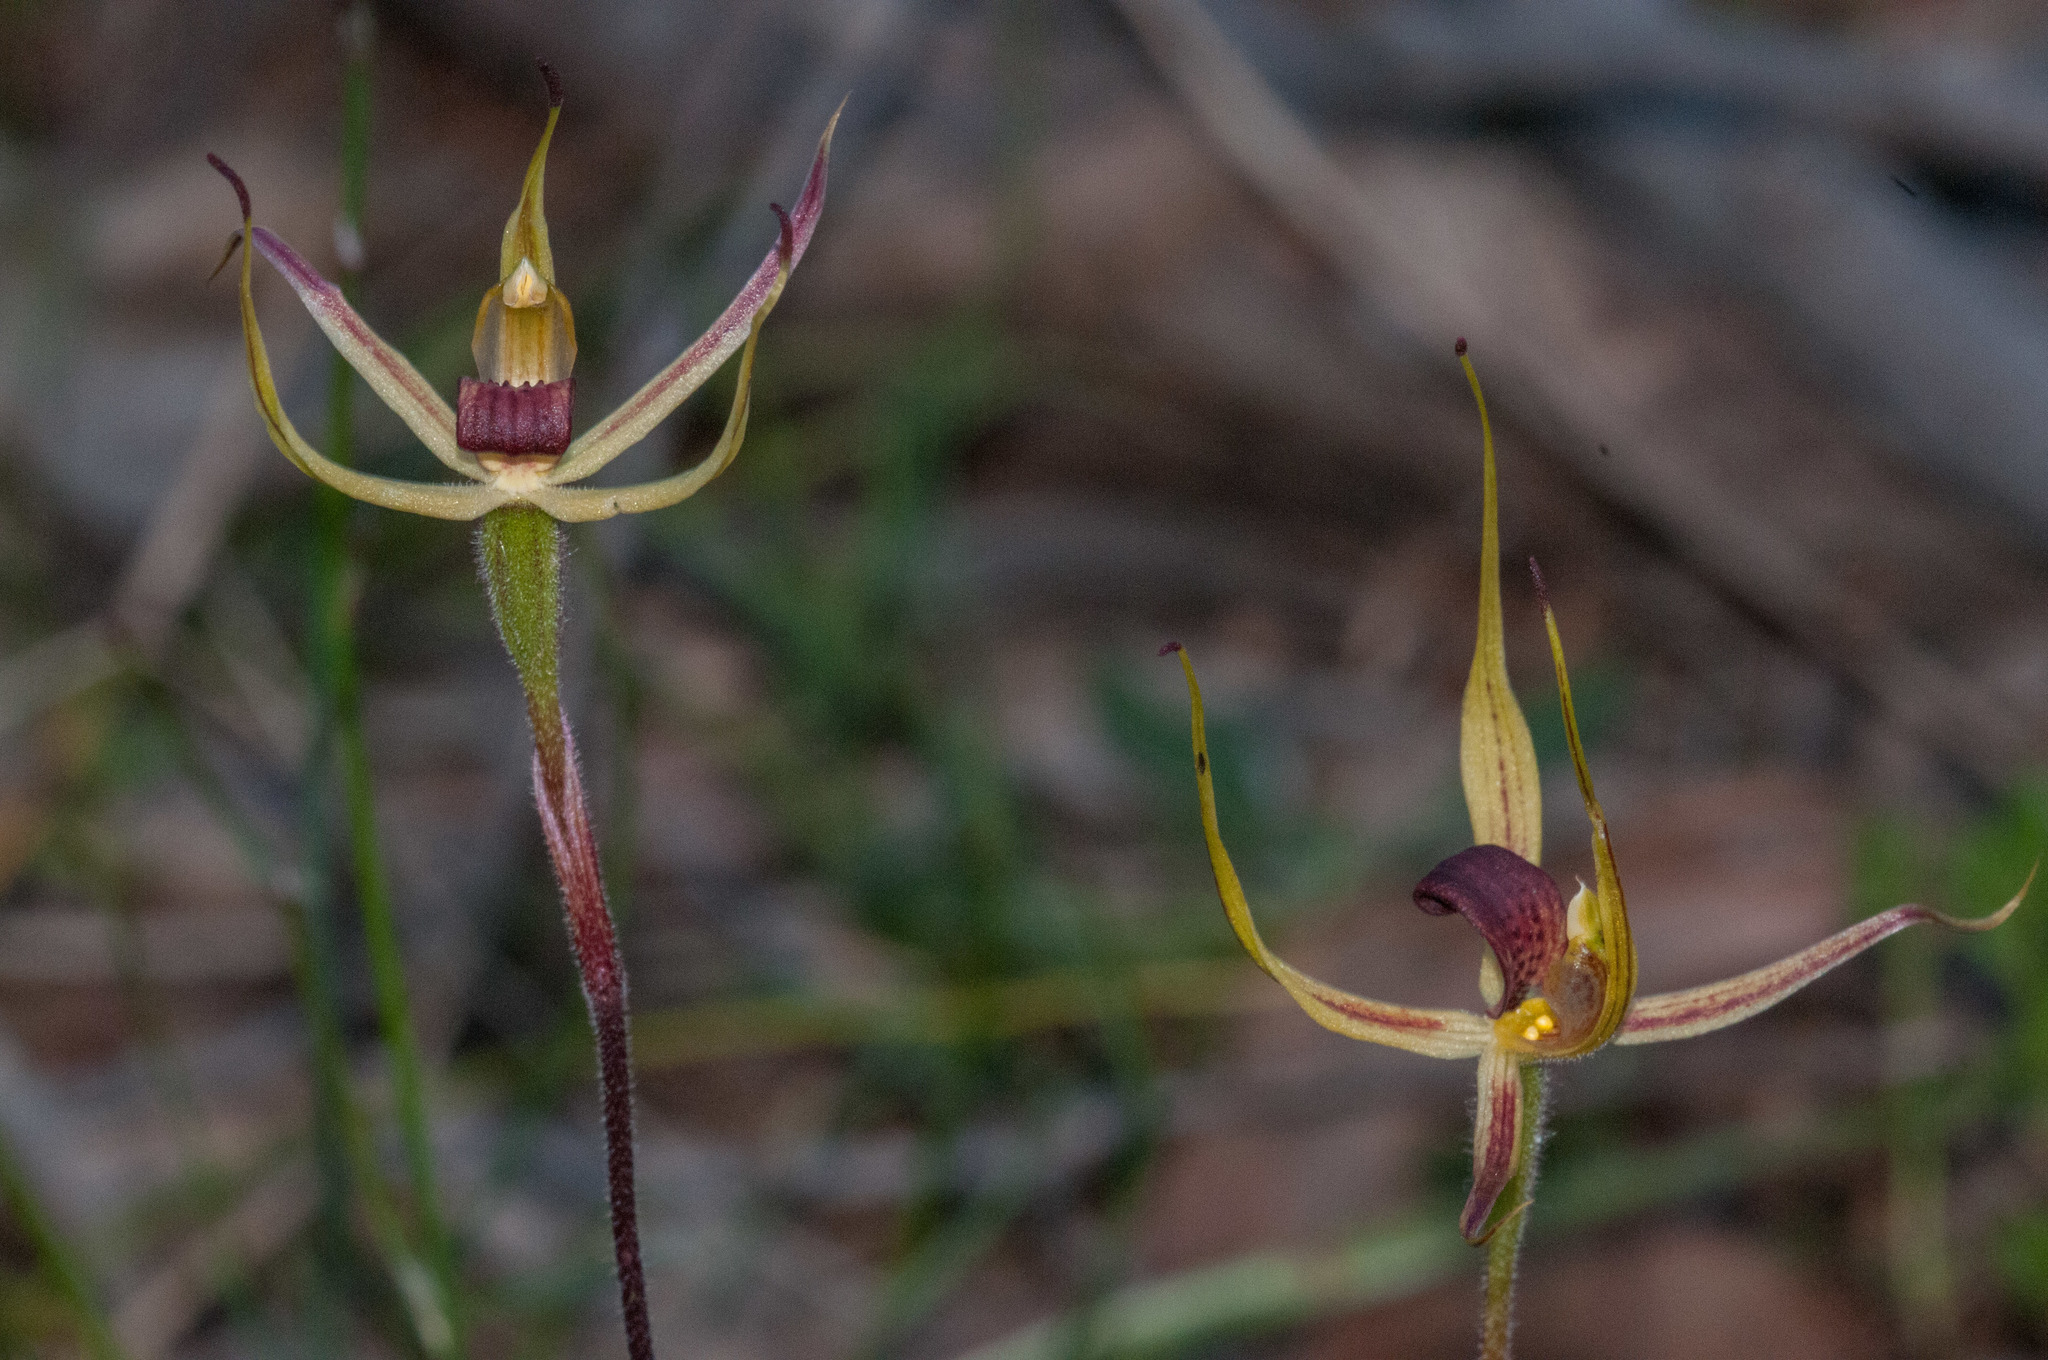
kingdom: Plantae
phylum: Tracheophyta
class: Liliopsida
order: Asparagales
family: Orchidaceae
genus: Caladenia
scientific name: Caladenia leptochila
